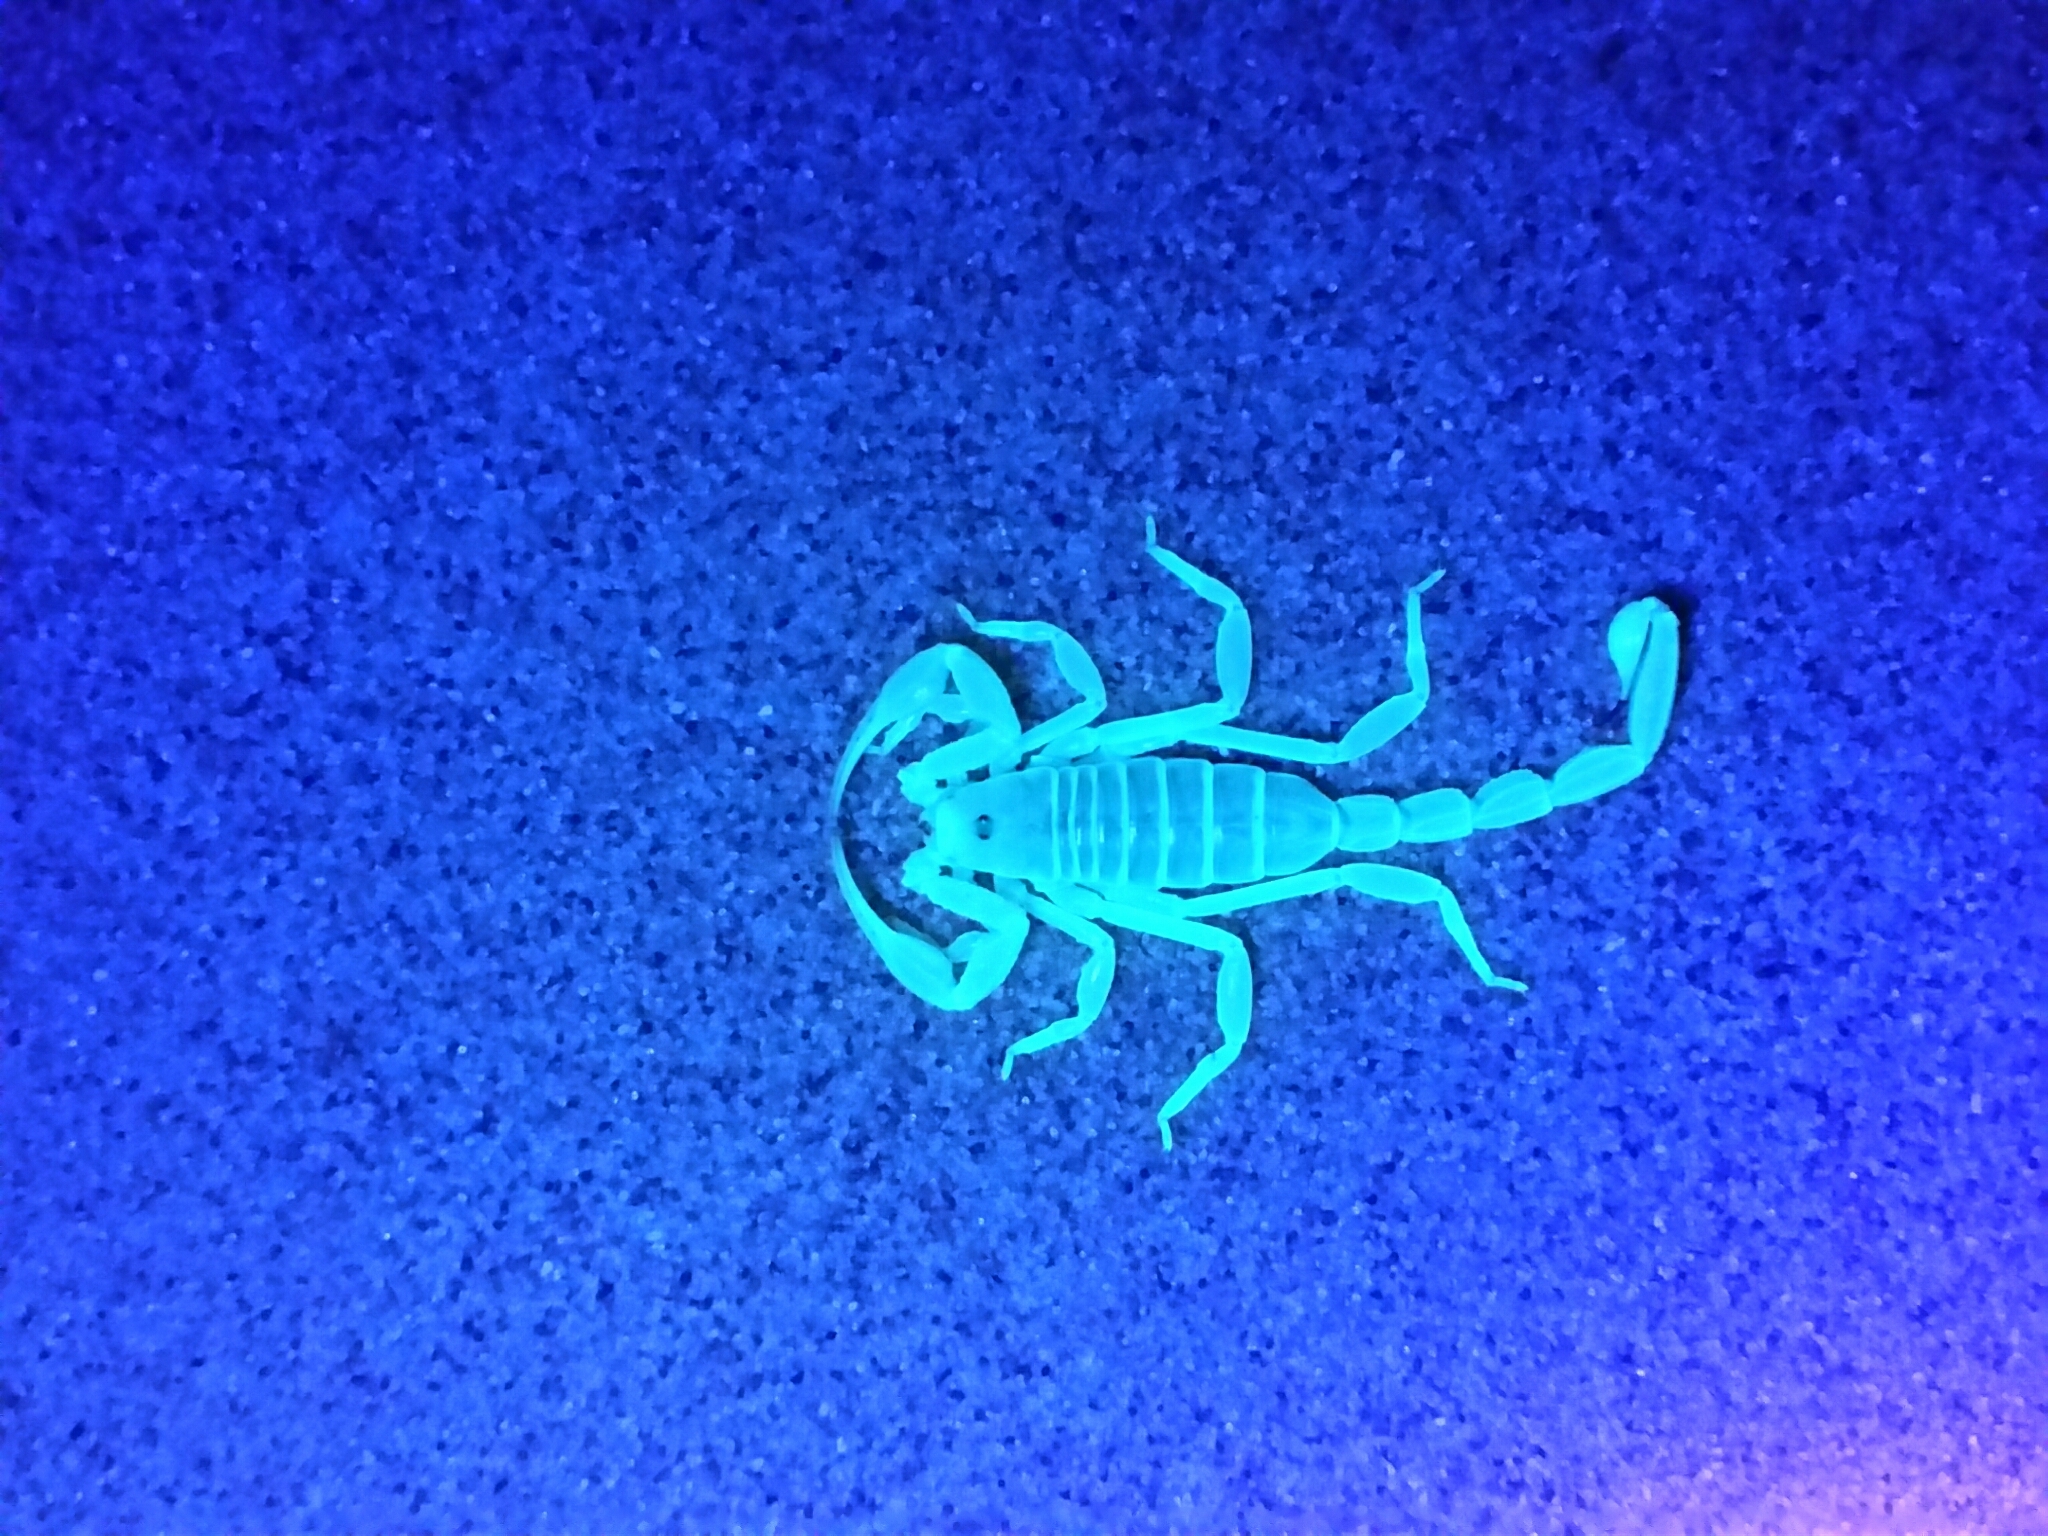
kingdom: Animalia
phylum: Arthropoda
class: Arachnida
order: Scorpiones
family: Vaejovidae
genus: Paruroctonus
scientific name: Paruroctonus xanthus
